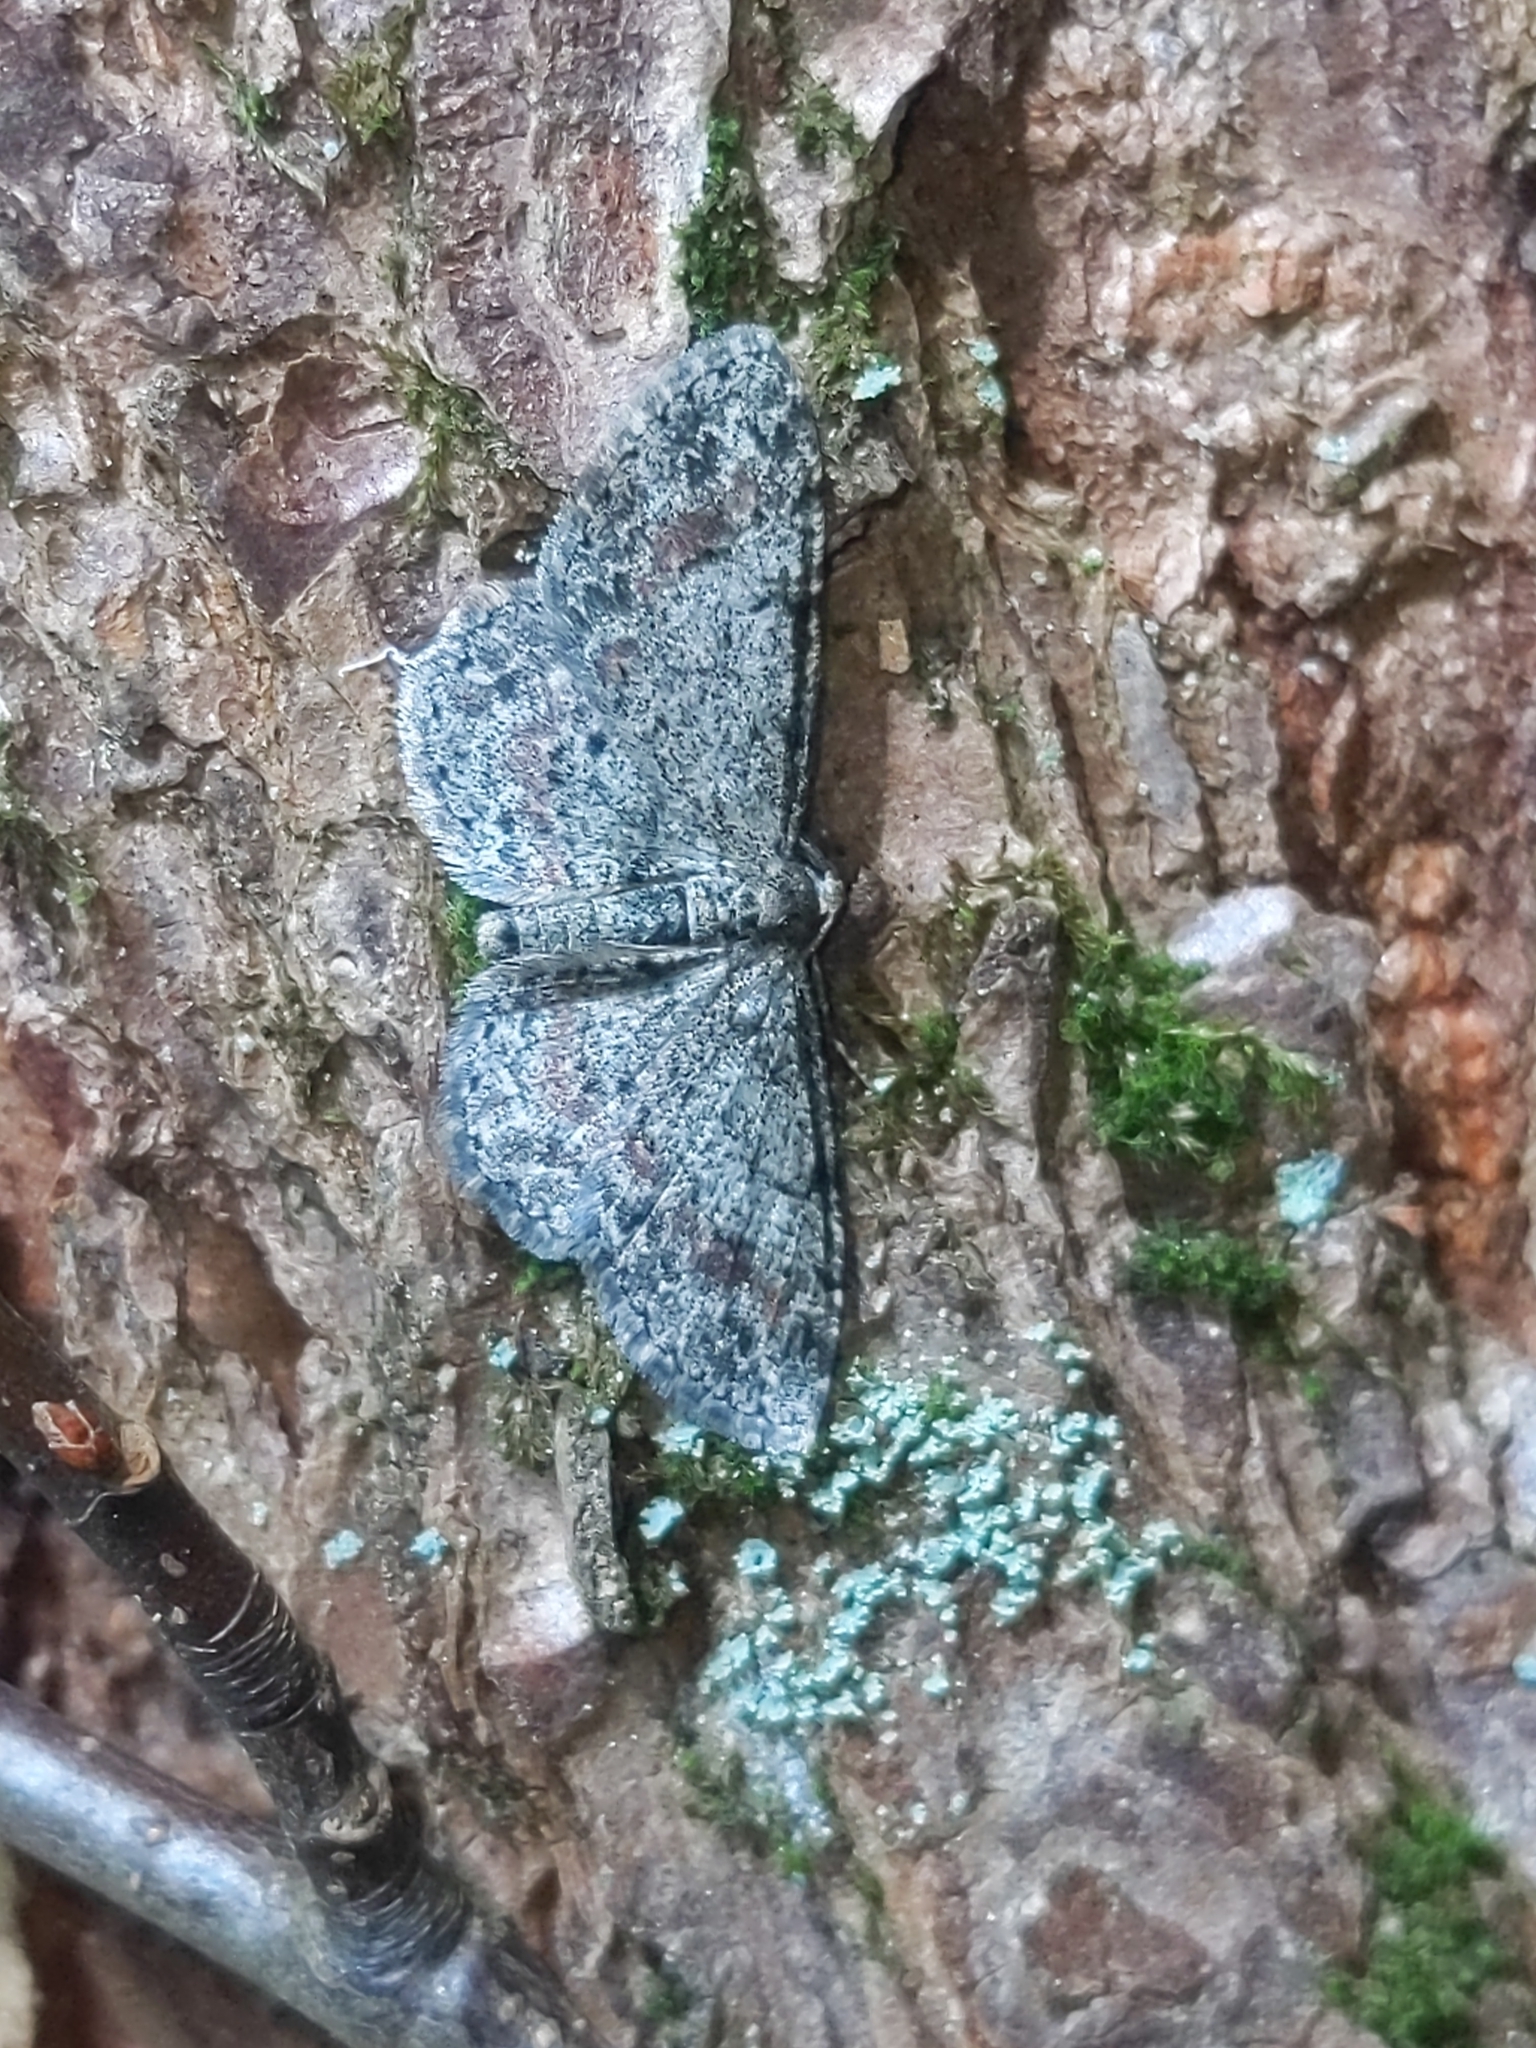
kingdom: Animalia
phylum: Arthropoda
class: Insecta
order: Lepidoptera
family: Geometridae
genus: Glenoides
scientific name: Glenoides texanaria
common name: Texas gray
